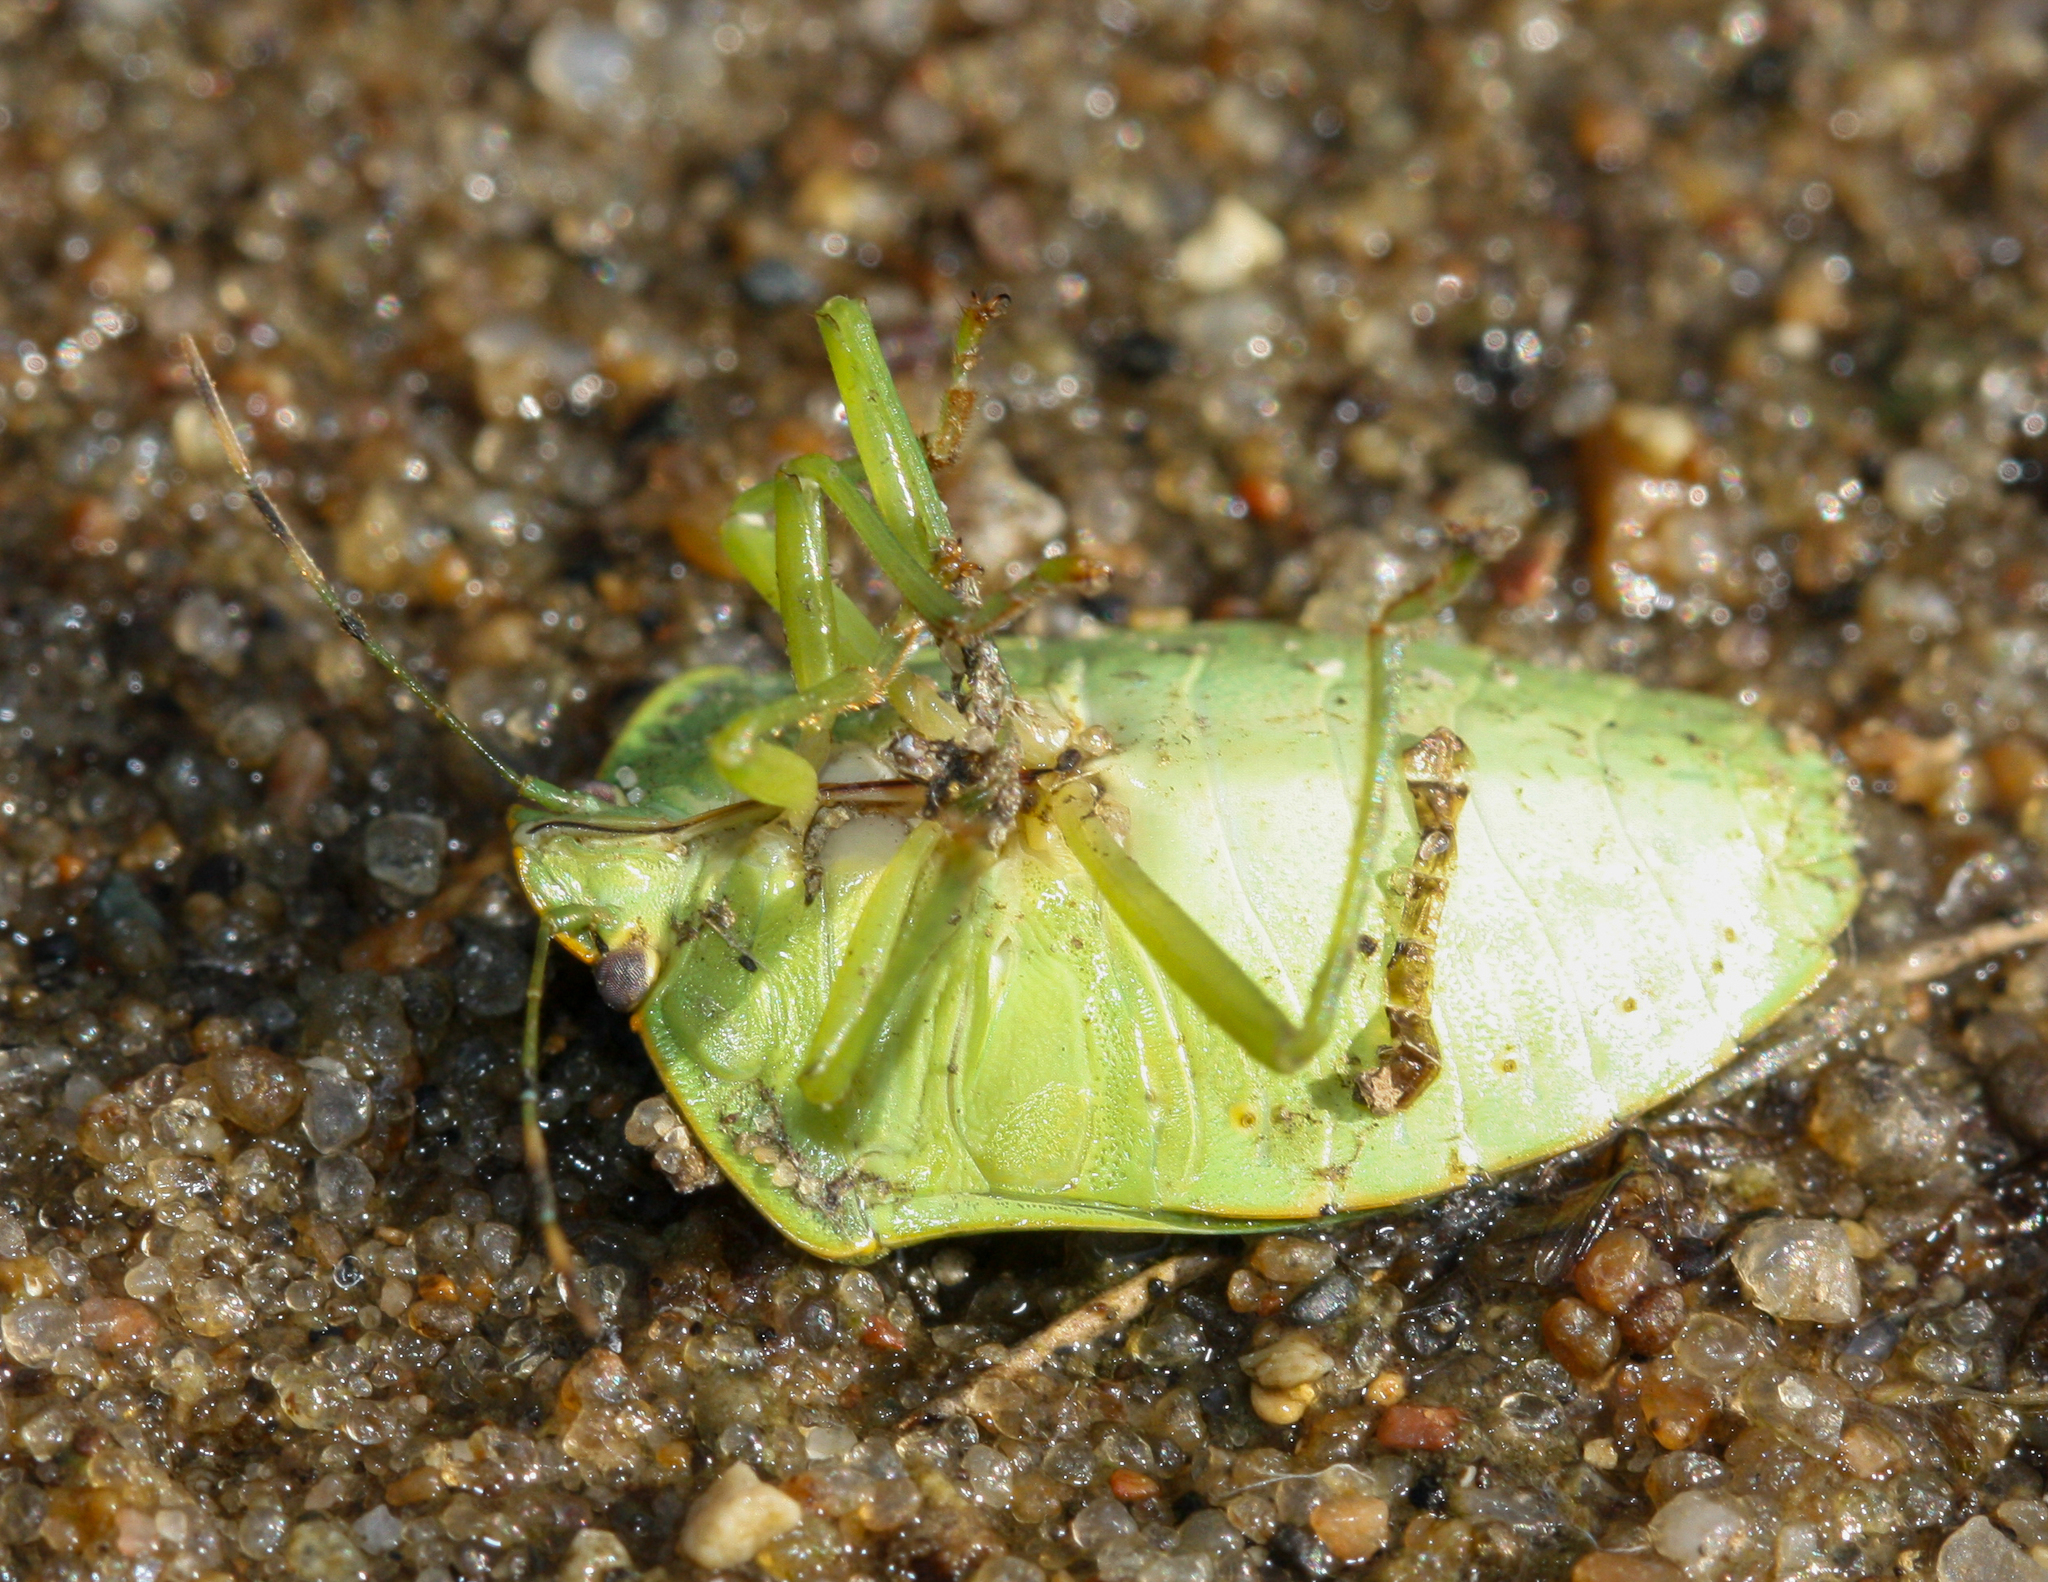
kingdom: Animalia
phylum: Arthropoda
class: Insecta
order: Hemiptera
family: Pentatomidae
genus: Chinavia
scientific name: Chinavia hilaris
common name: Green stink bug
